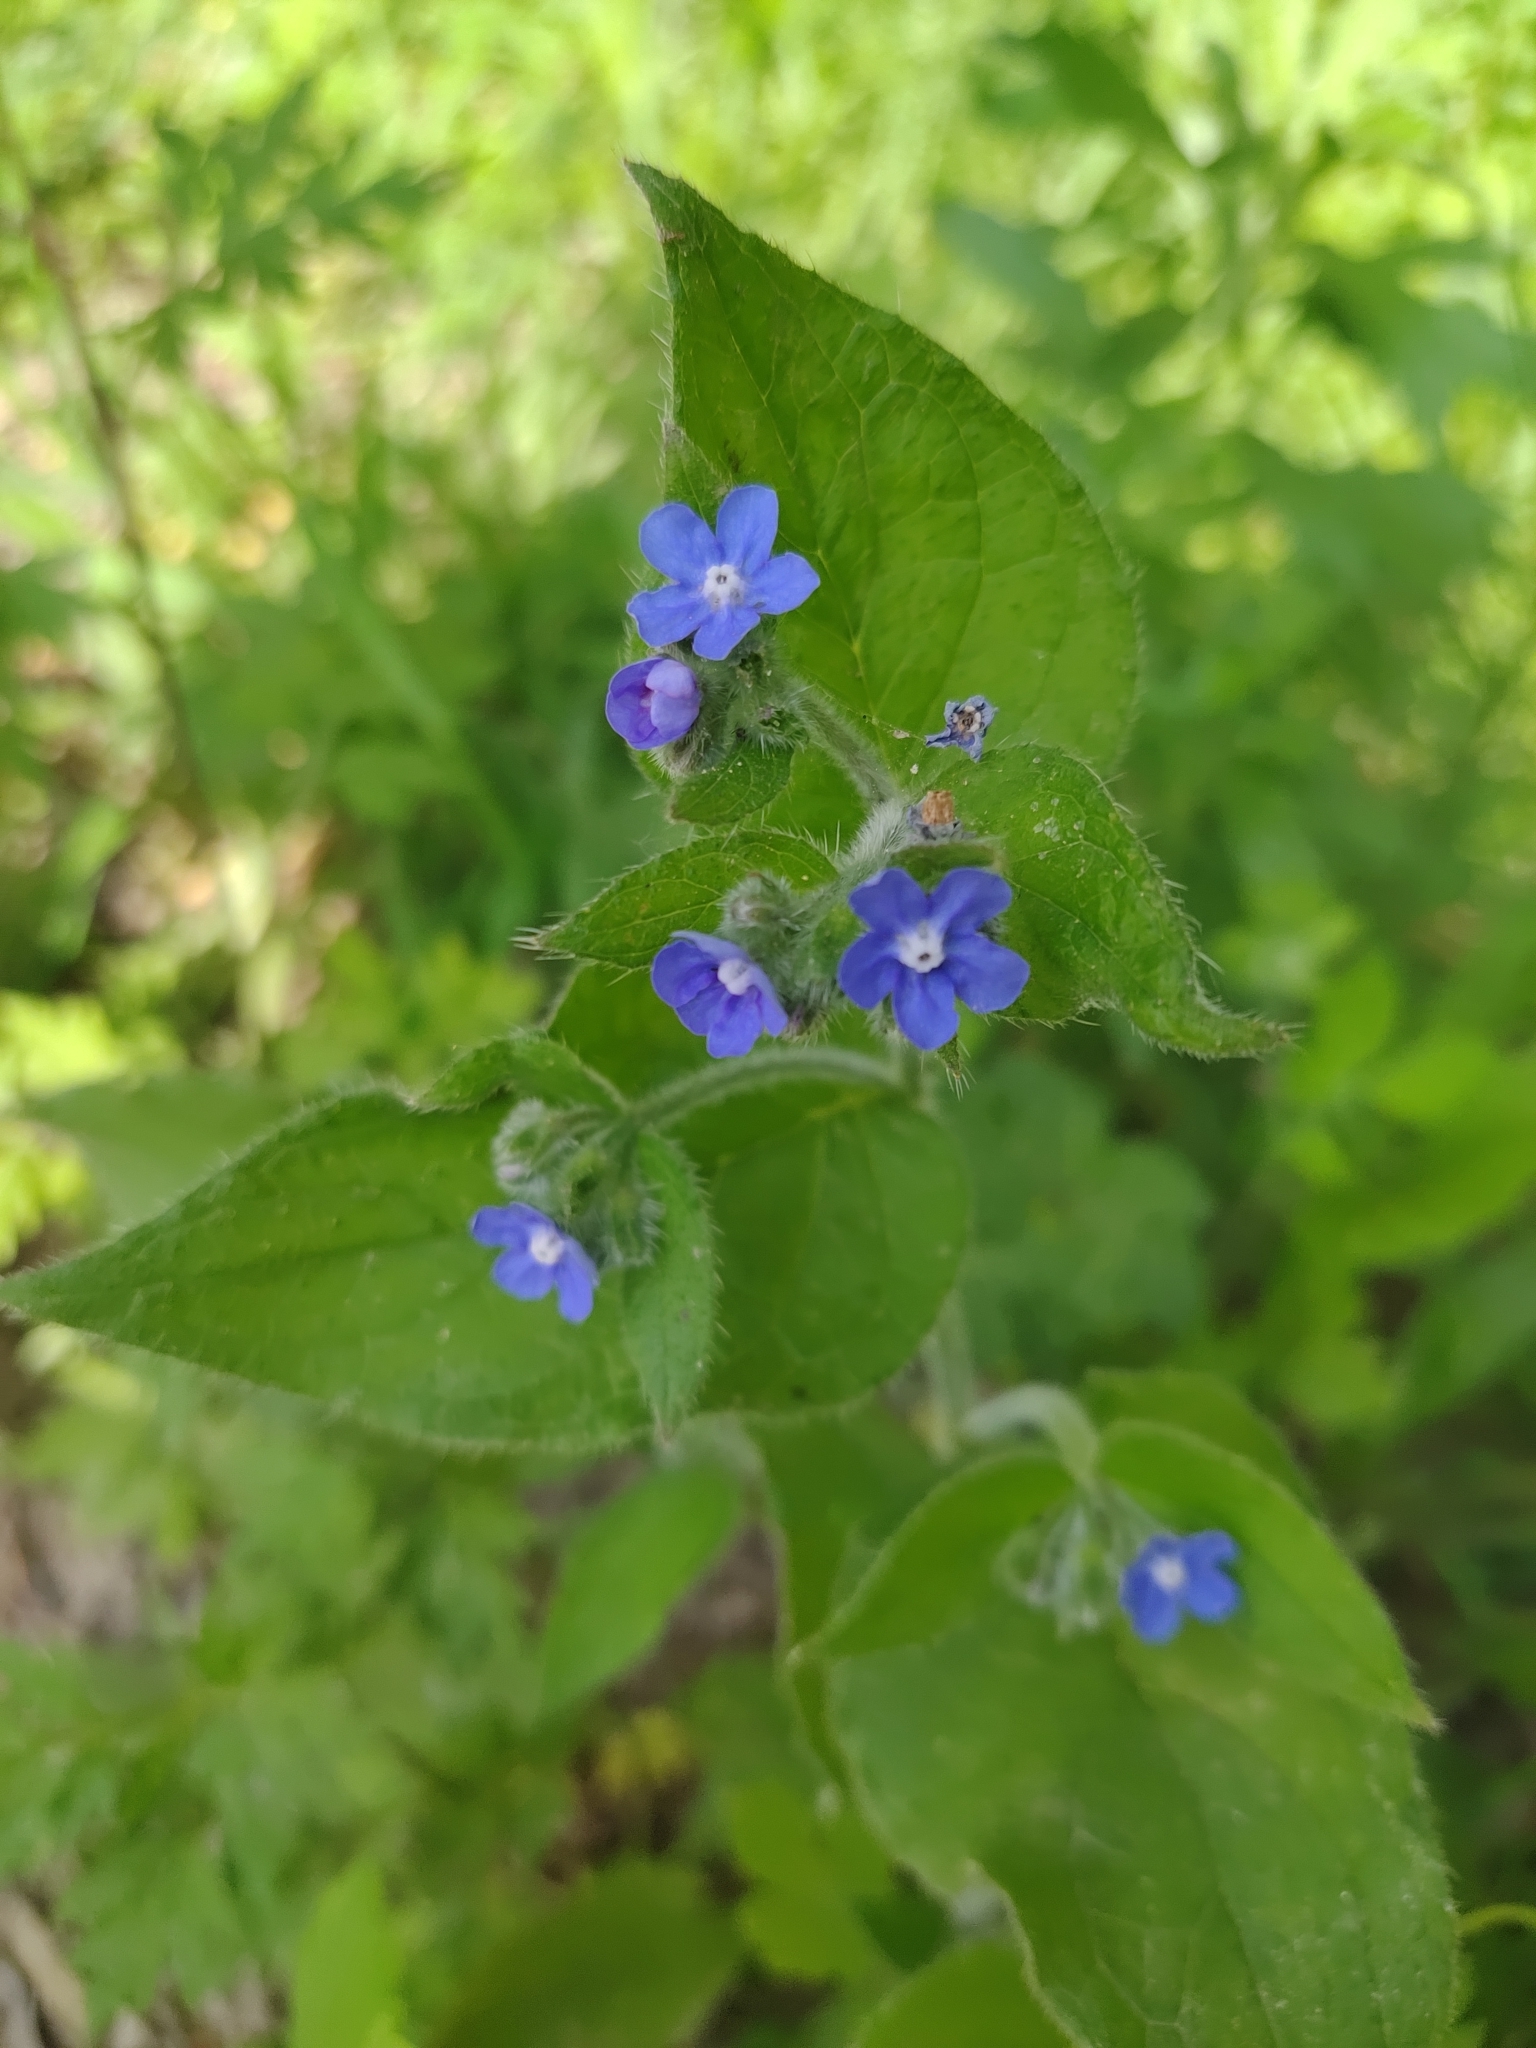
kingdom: Plantae
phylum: Tracheophyta
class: Magnoliopsida
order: Boraginales
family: Boraginaceae
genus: Pentaglottis
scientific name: Pentaglottis sempervirens
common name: Green alkanet
